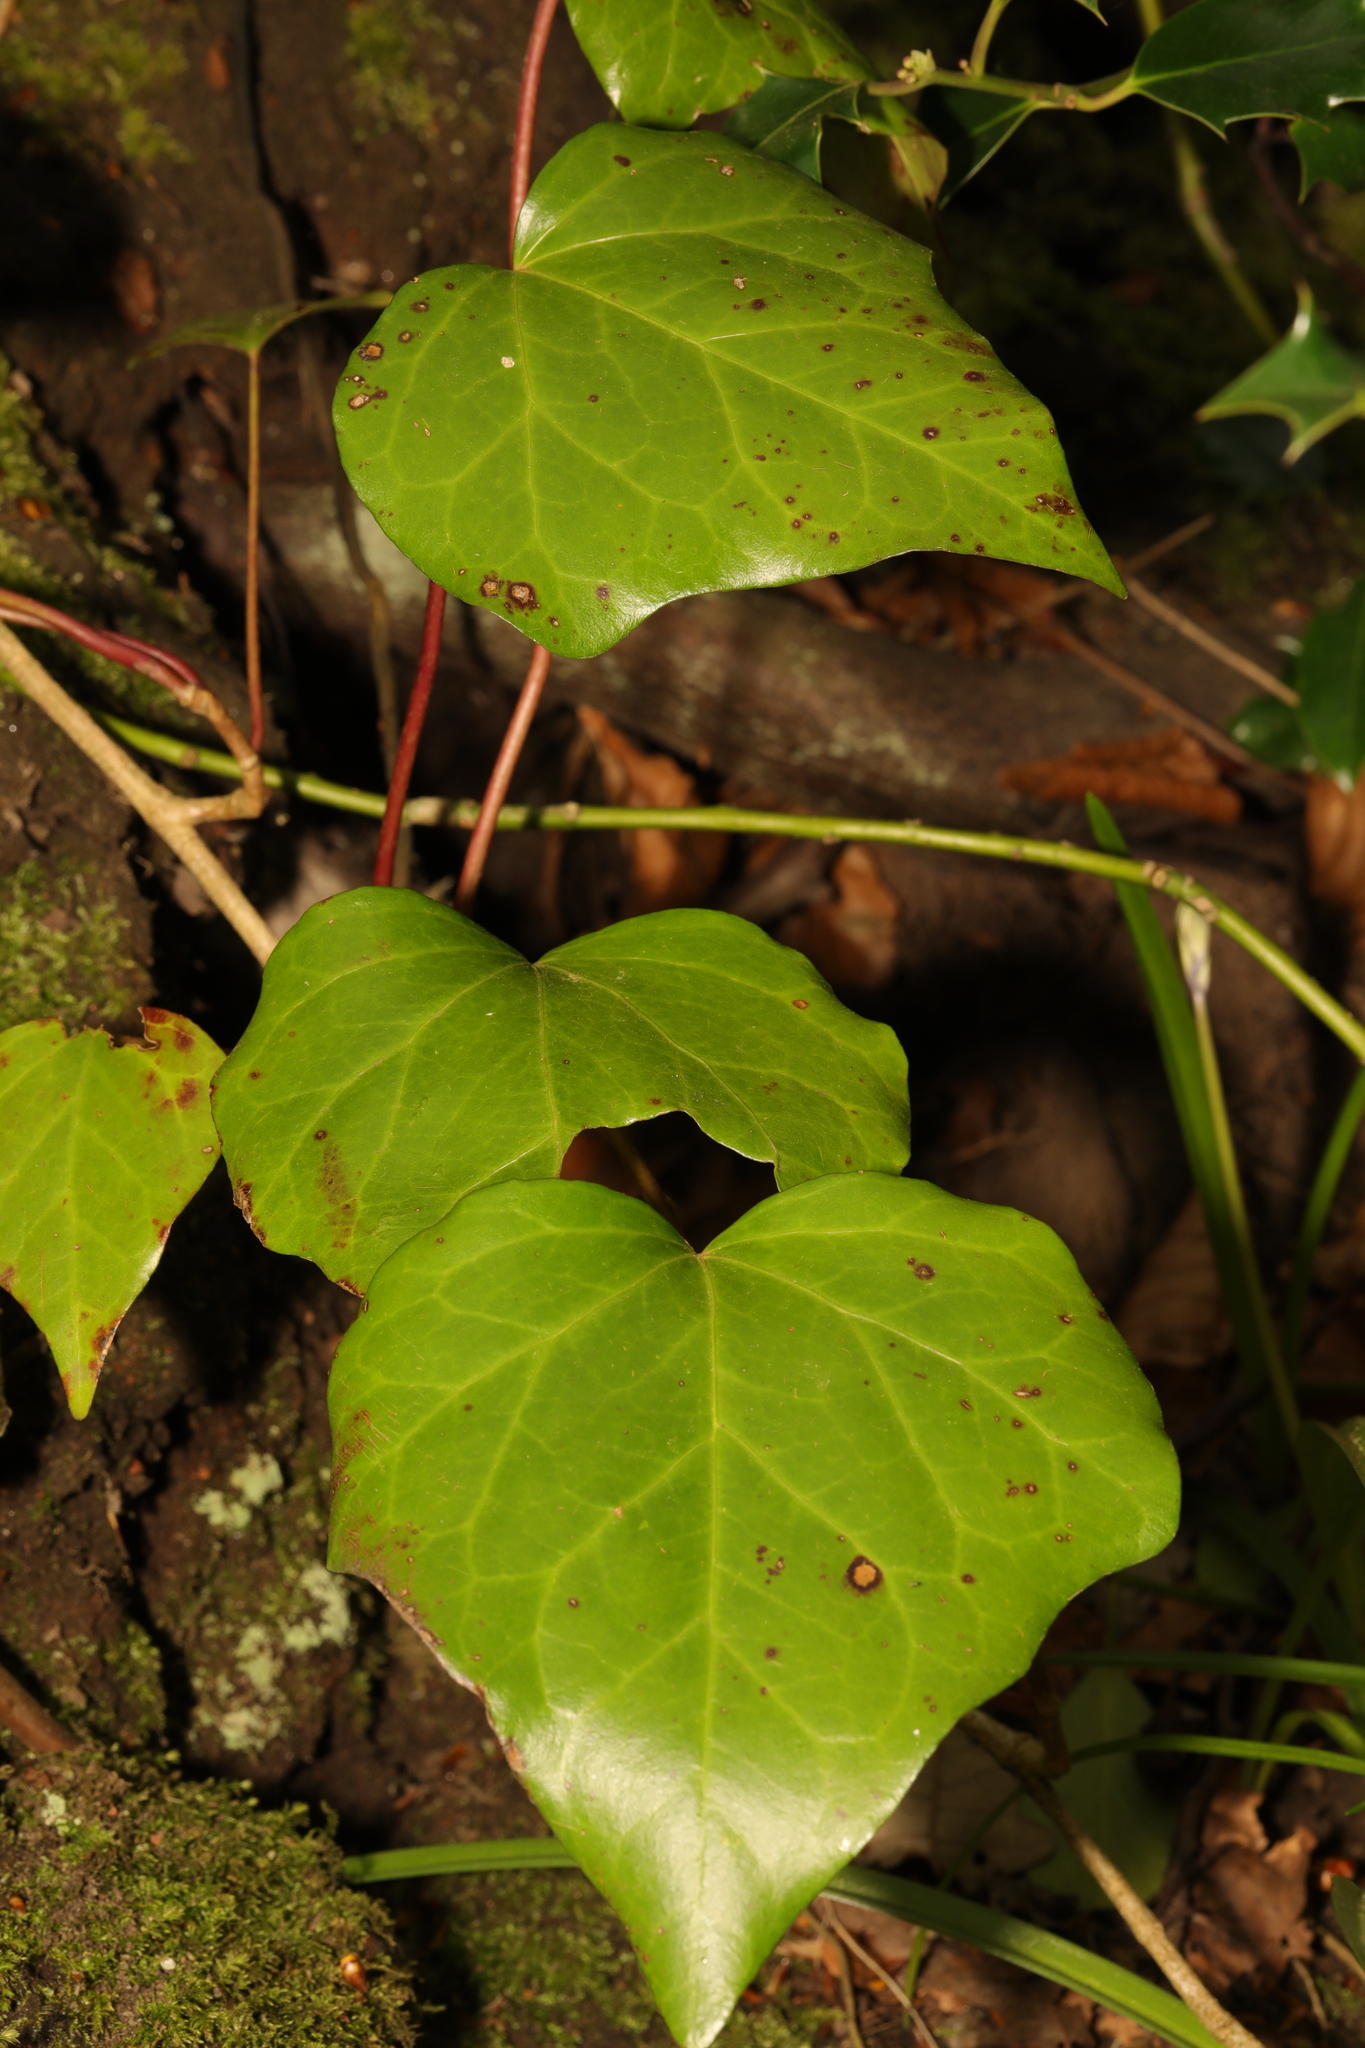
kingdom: Plantae
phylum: Tracheophyta
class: Magnoliopsida
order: Apiales
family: Araliaceae
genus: Hedera
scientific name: Hedera colchica
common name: Persian ivy
